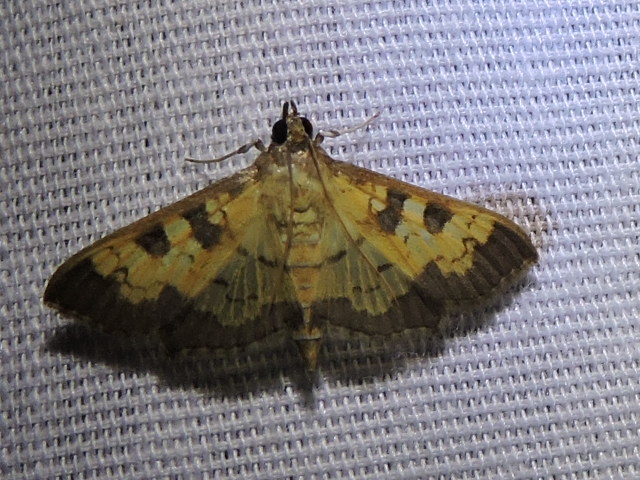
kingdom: Animalia
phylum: Arthropoda
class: Insecta
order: Lepidoptera
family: Crambidae
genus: Cryptographis
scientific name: Cryptographis elealis
